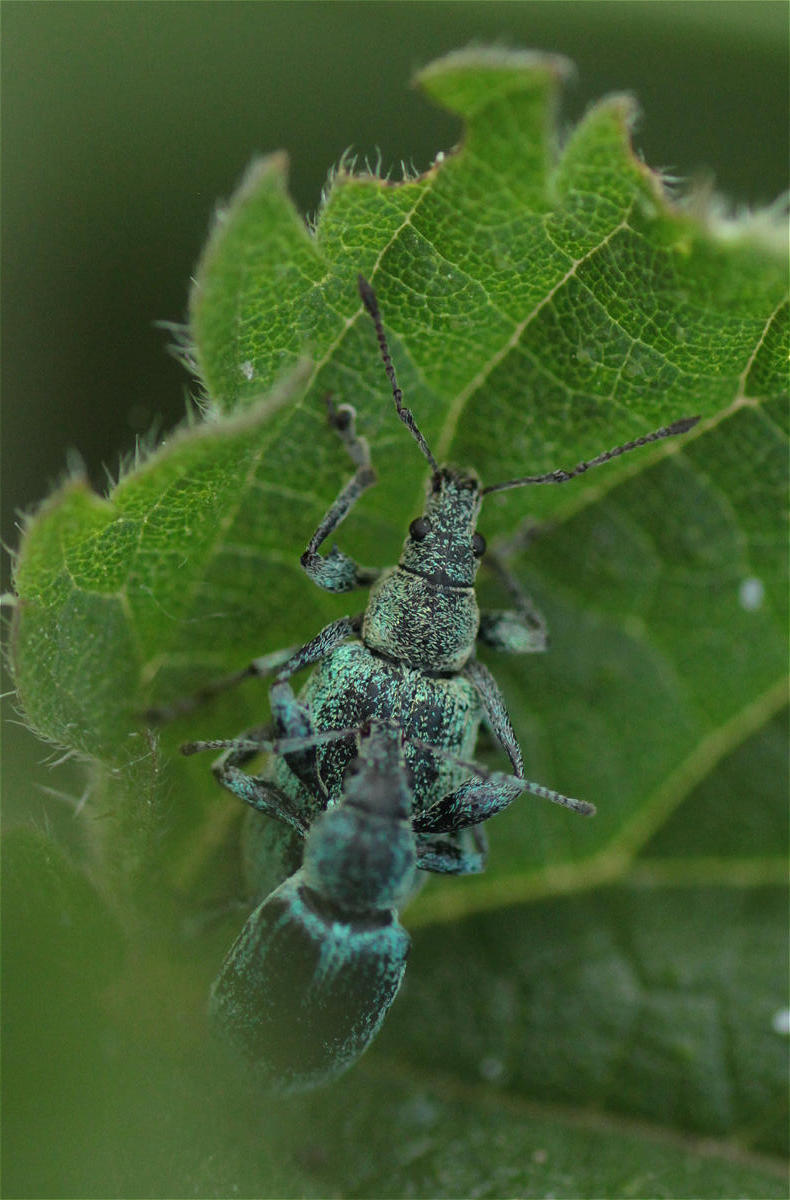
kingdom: Animalia
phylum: Arthropoda
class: Insecta
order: Coleoptera
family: Curculionidae
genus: Phyllobius
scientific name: Phyllobius pomaceus
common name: Green nettle weevil
